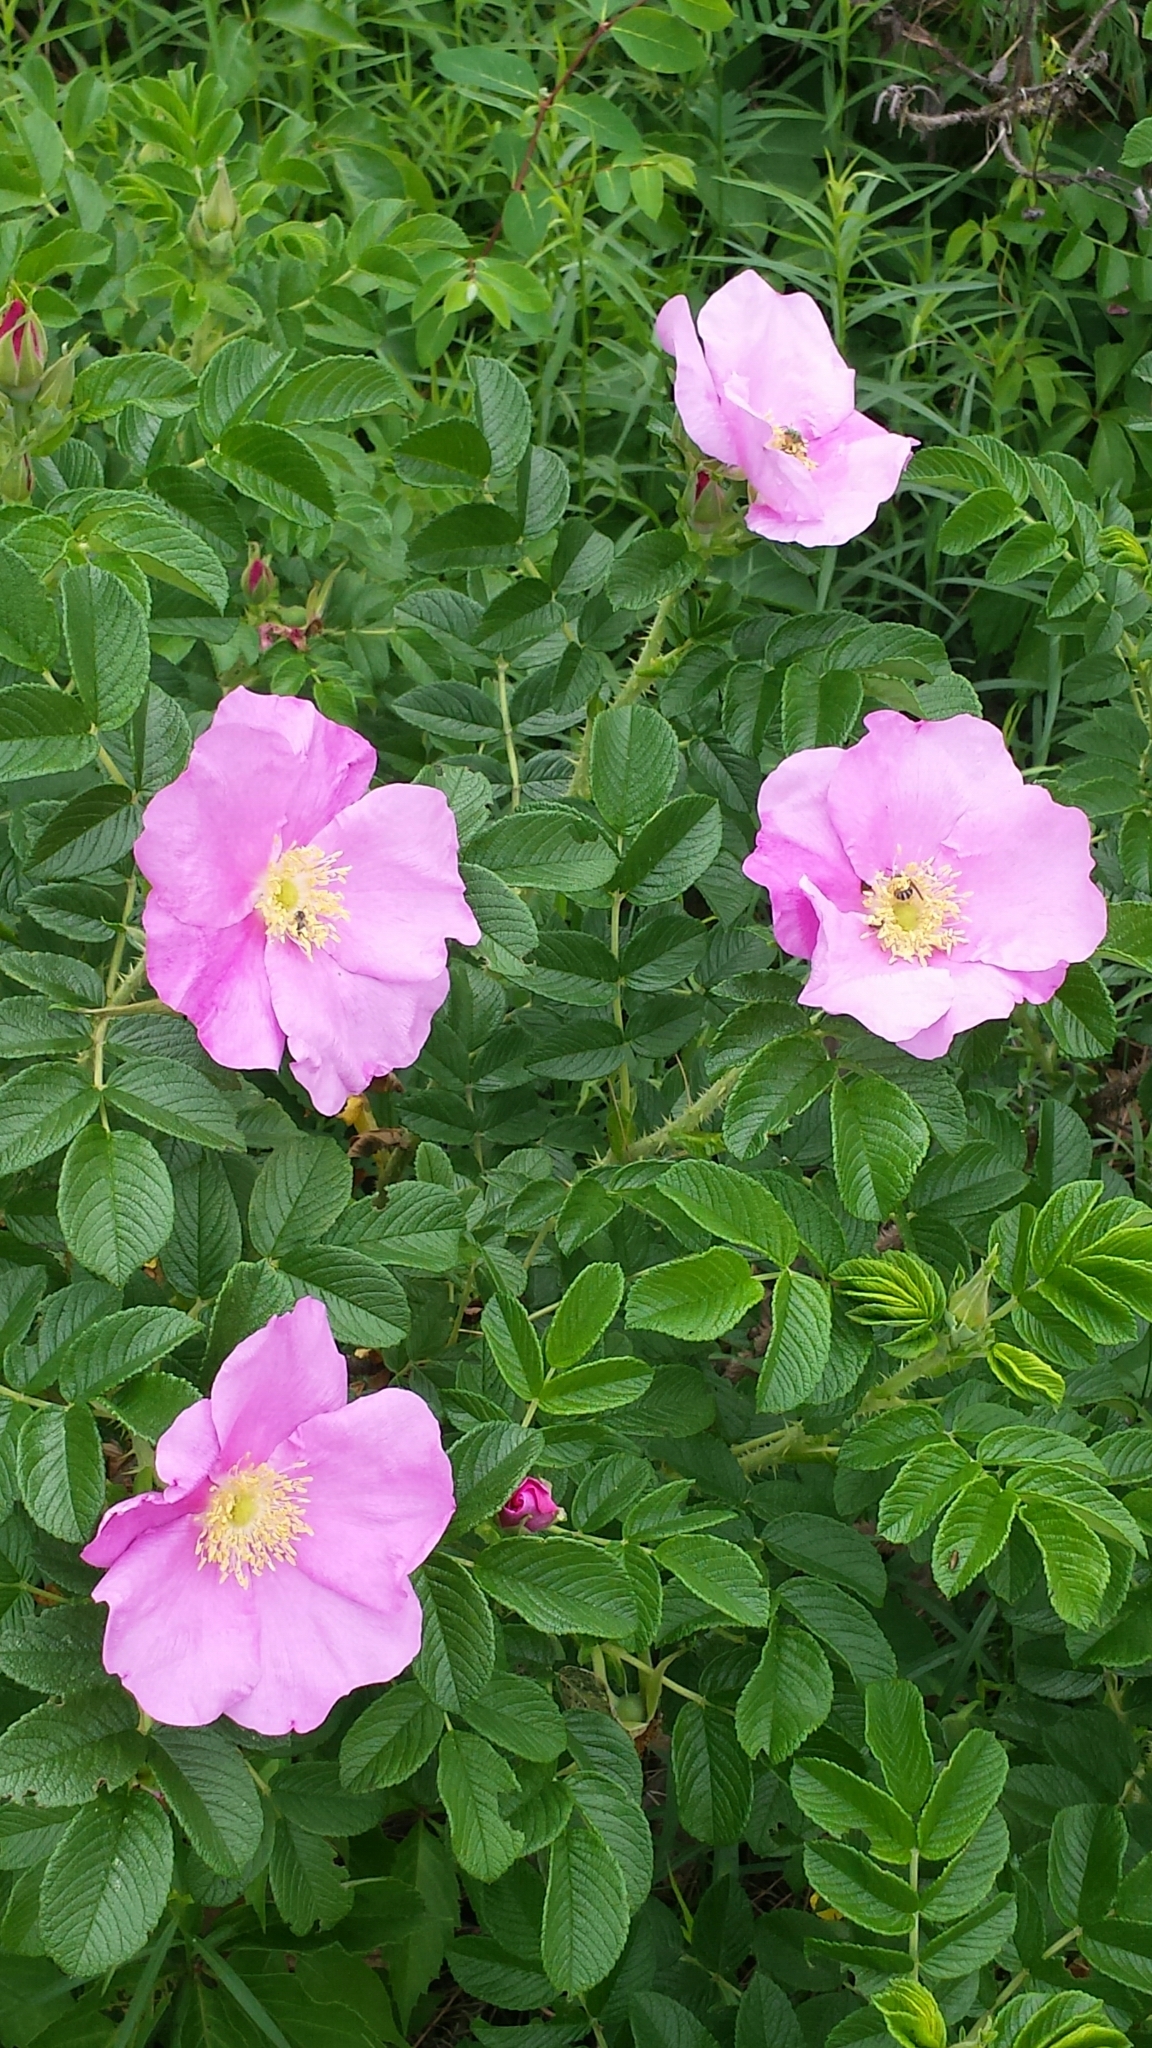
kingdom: Plantae
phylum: Tracheophyta
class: Magnoliopsida
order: Rosales
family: Rosaceae
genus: Rosa
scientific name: Rosa rugosa
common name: Japanese rose
